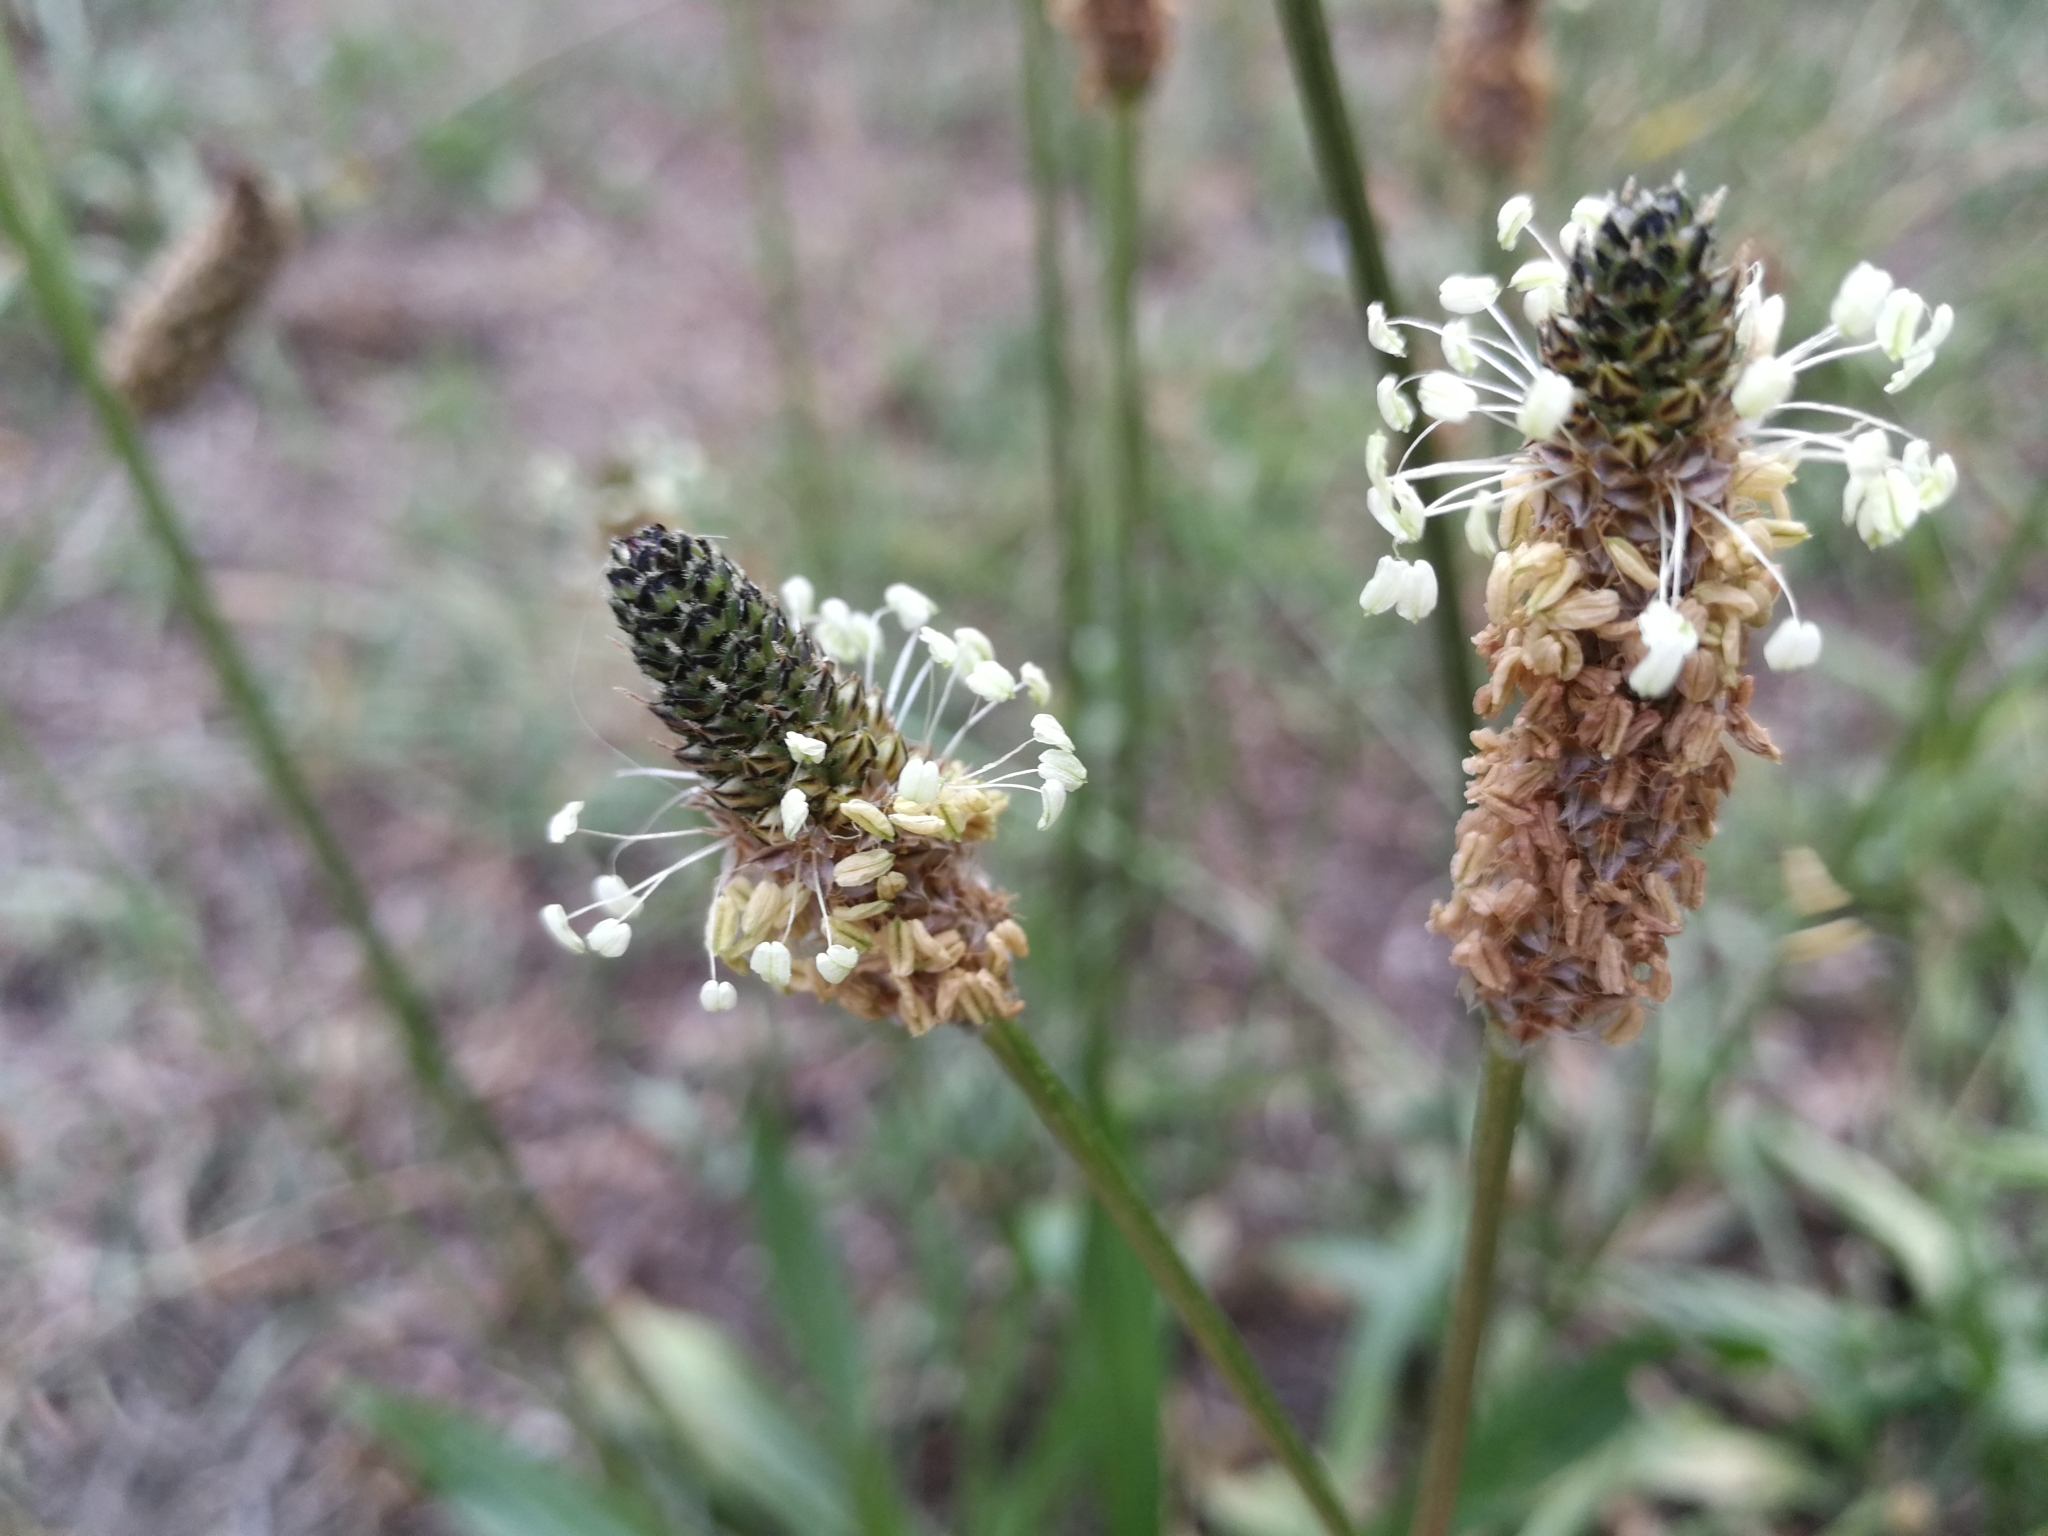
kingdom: Plantae
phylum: Tracheophyta
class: Magnoliopsida
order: Lamiales
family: Plantaginaceae
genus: Plantago
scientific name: Plantago lanceolata
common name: Ribwort plantain
